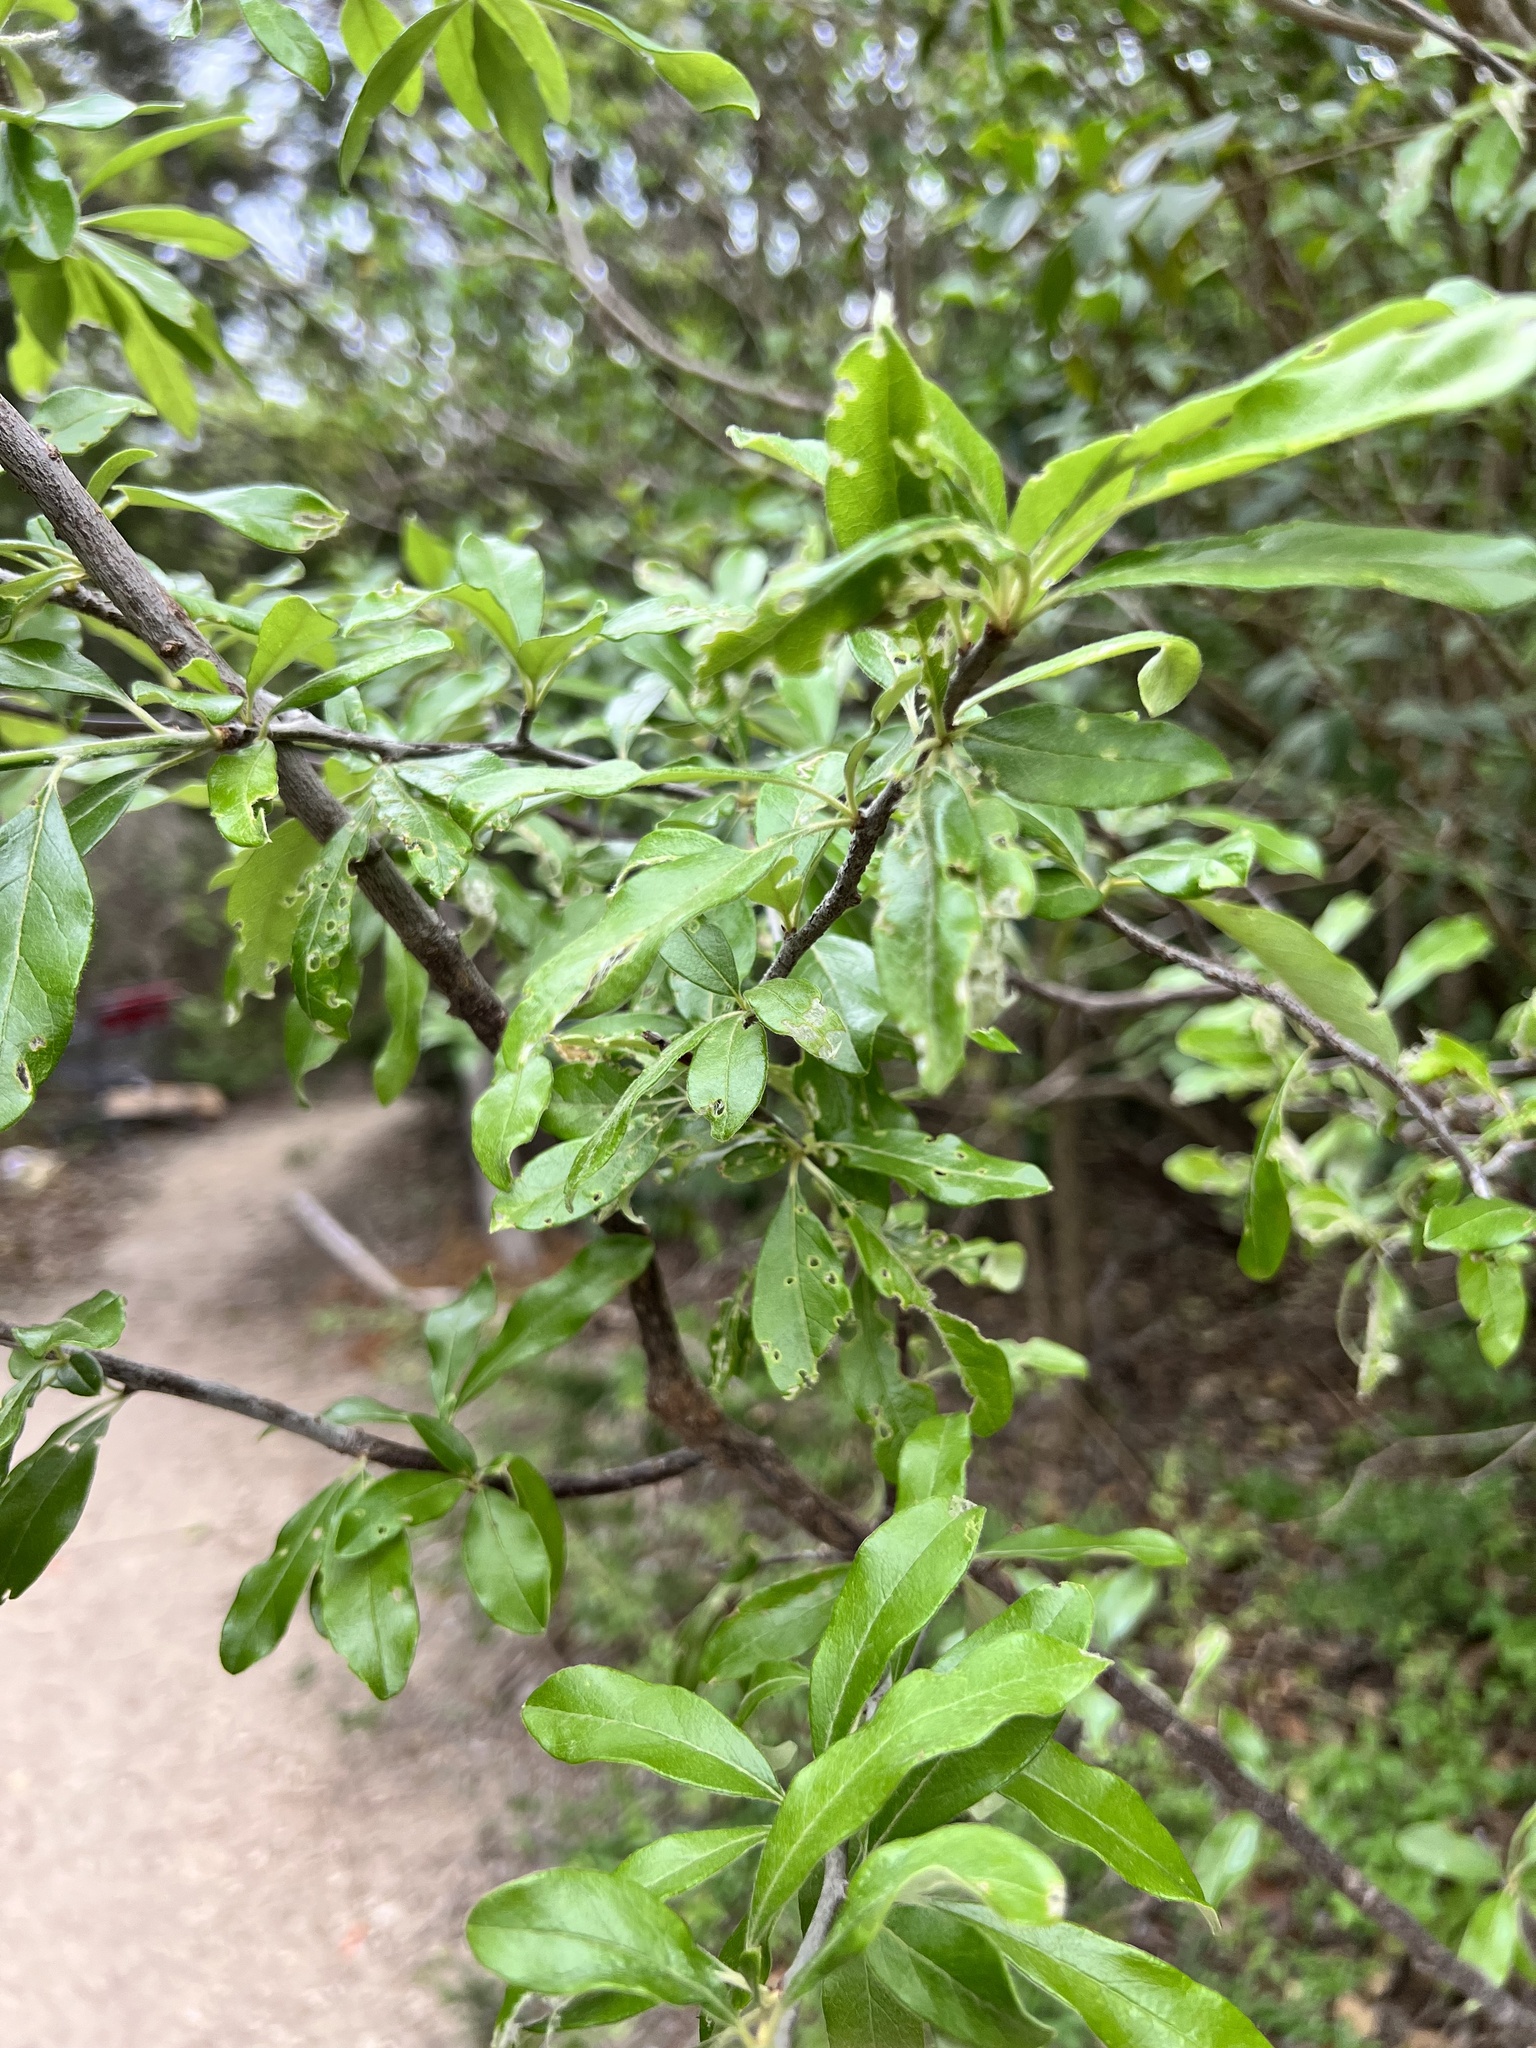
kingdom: Plantae
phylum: Tracheophyta
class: Magnoliopsida
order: Ericales
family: Sapotaceae
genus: Sideroxylon
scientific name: Sideroxylon lanuginosum
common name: Chittamwood
